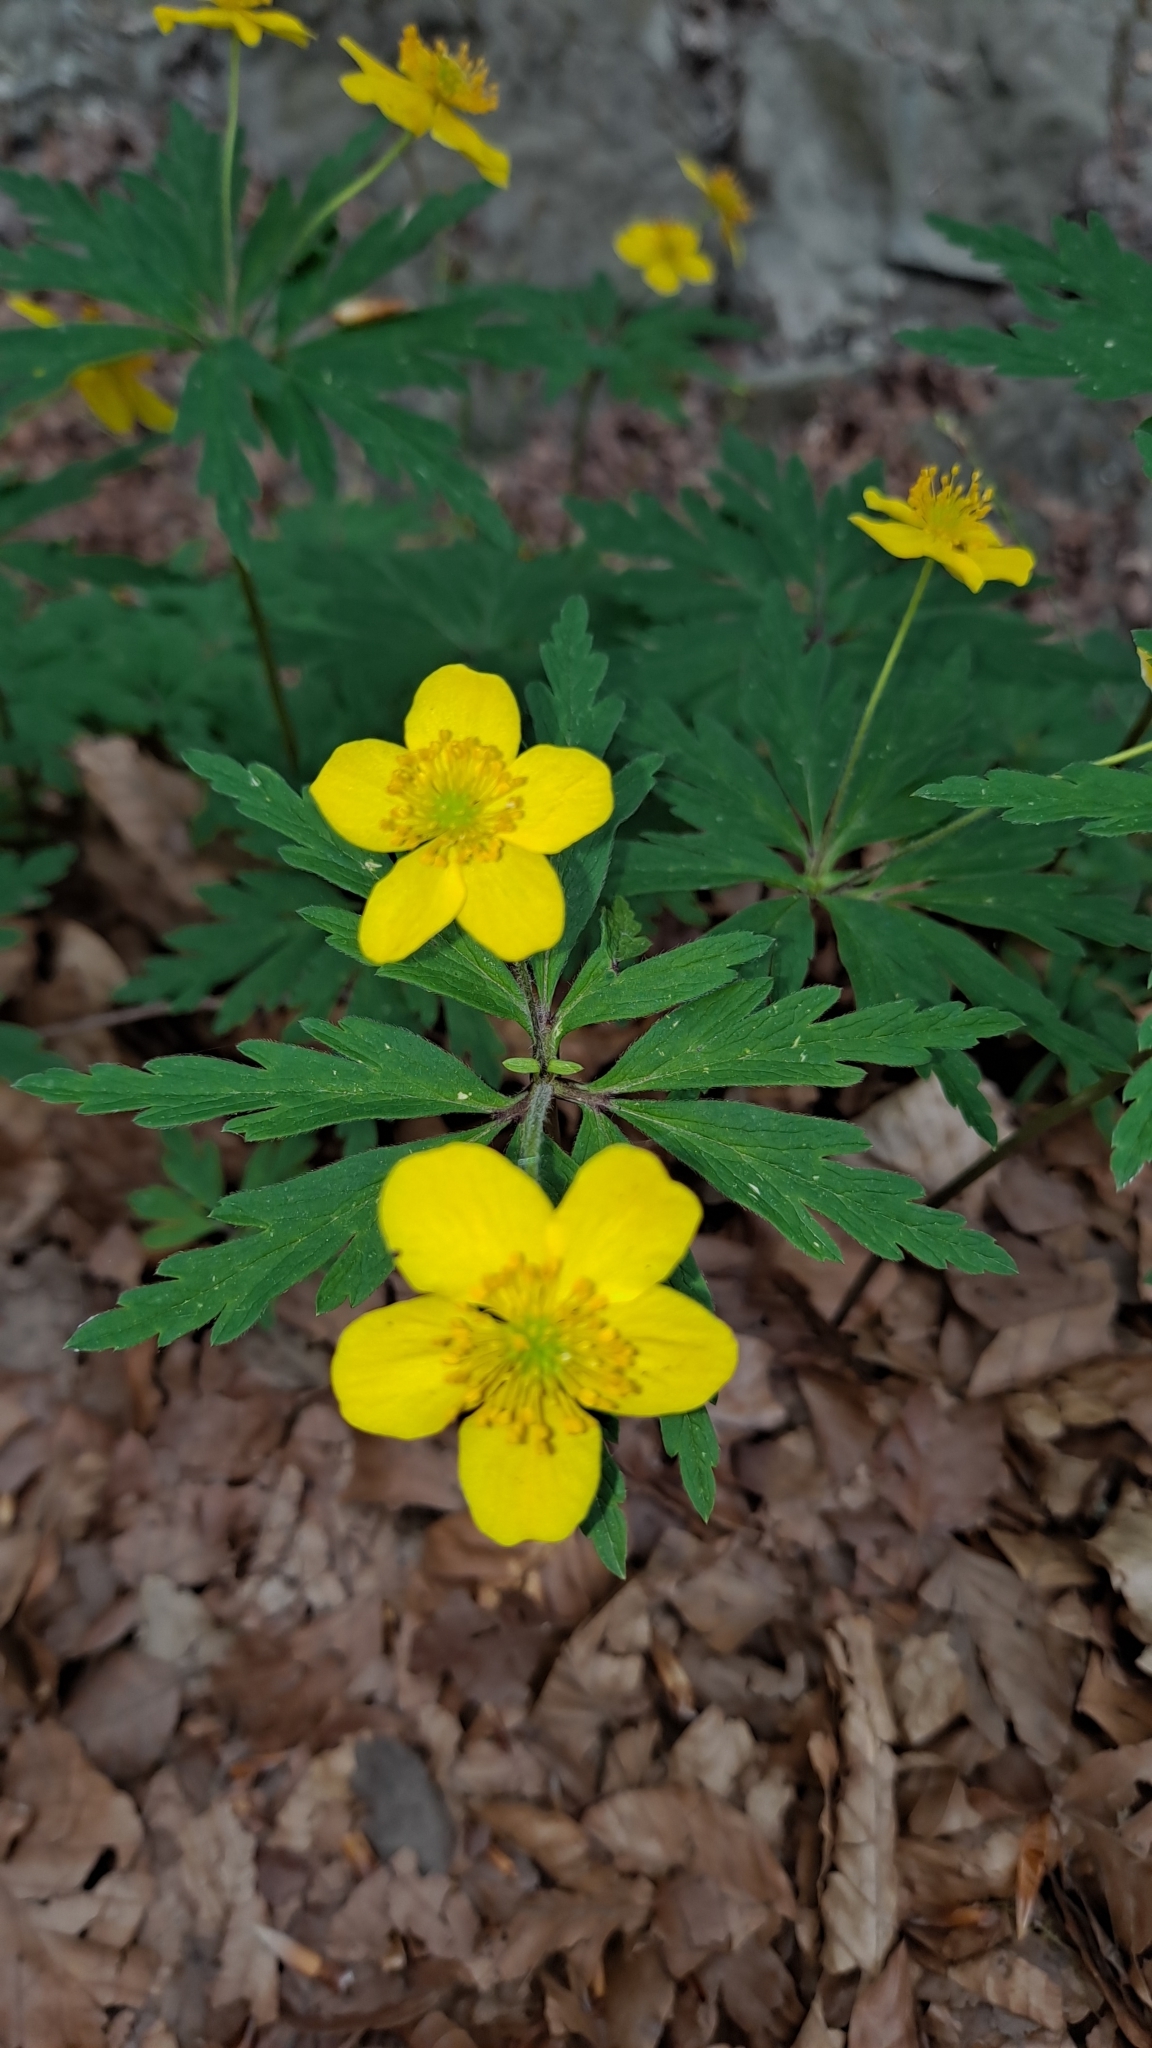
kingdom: Plantae
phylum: Tracheophyta
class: Magnoliopsida
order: Ranunculales
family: Ranunculaceae
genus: Anemone
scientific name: Anemone ranunculoides
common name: Yellow anemone
